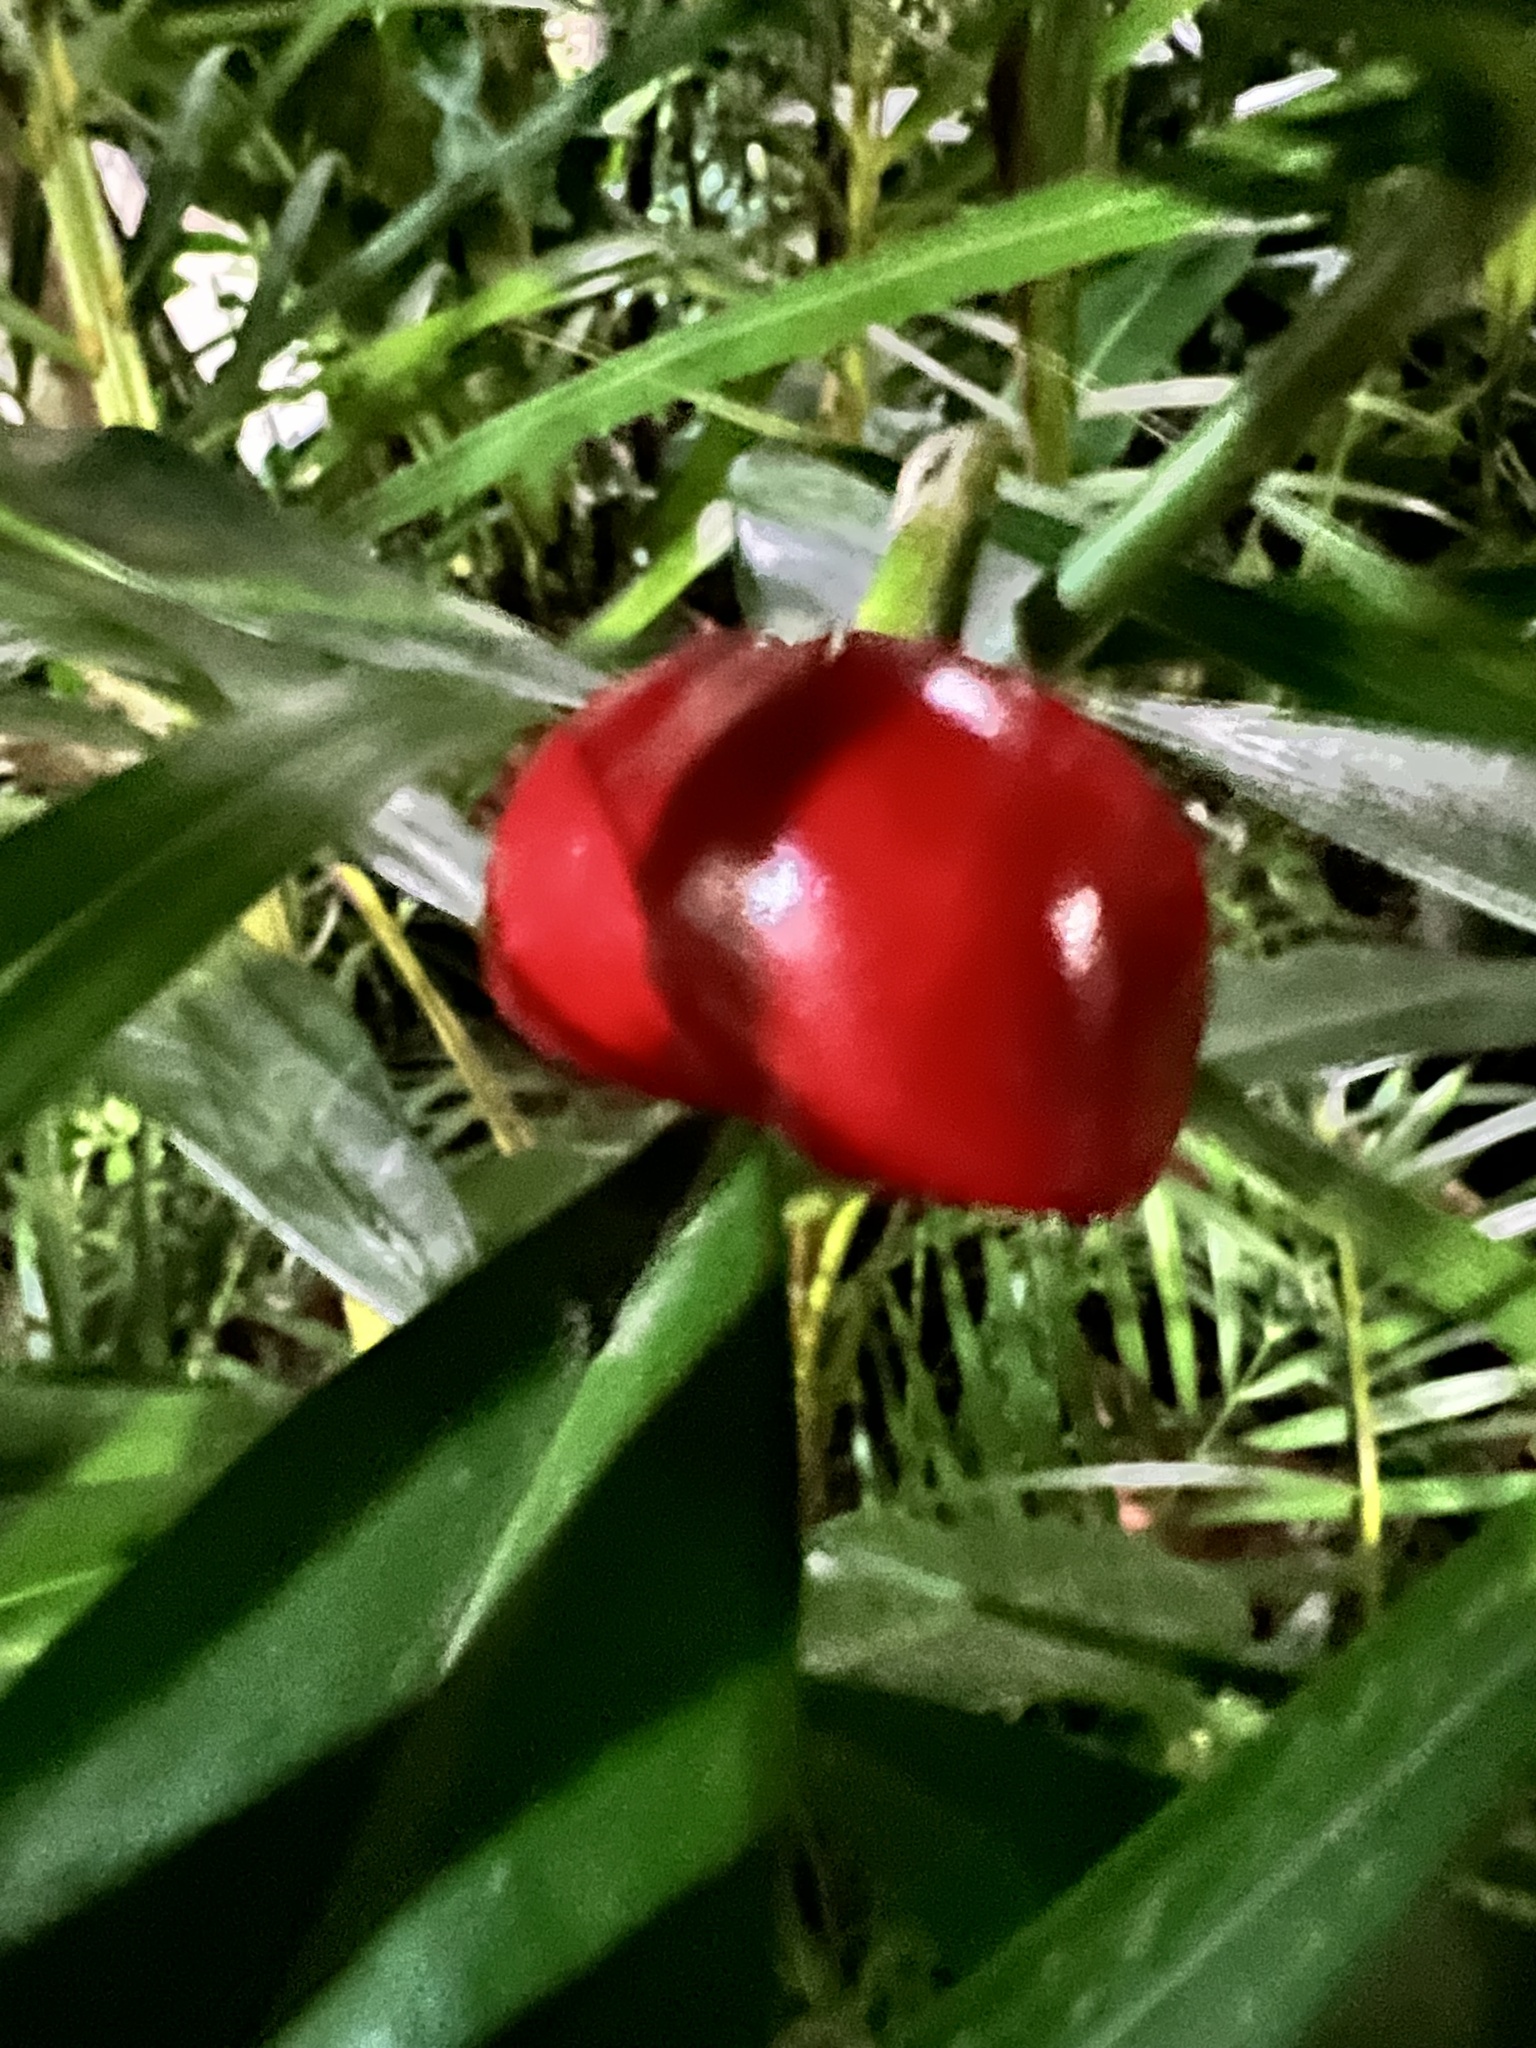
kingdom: Plantae
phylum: Tracheophyta
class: Magnoliopsida
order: Gentianales
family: Apocynaceae
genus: Thevetia
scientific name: Thevetia ahouai
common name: Broadleaf thevetia
